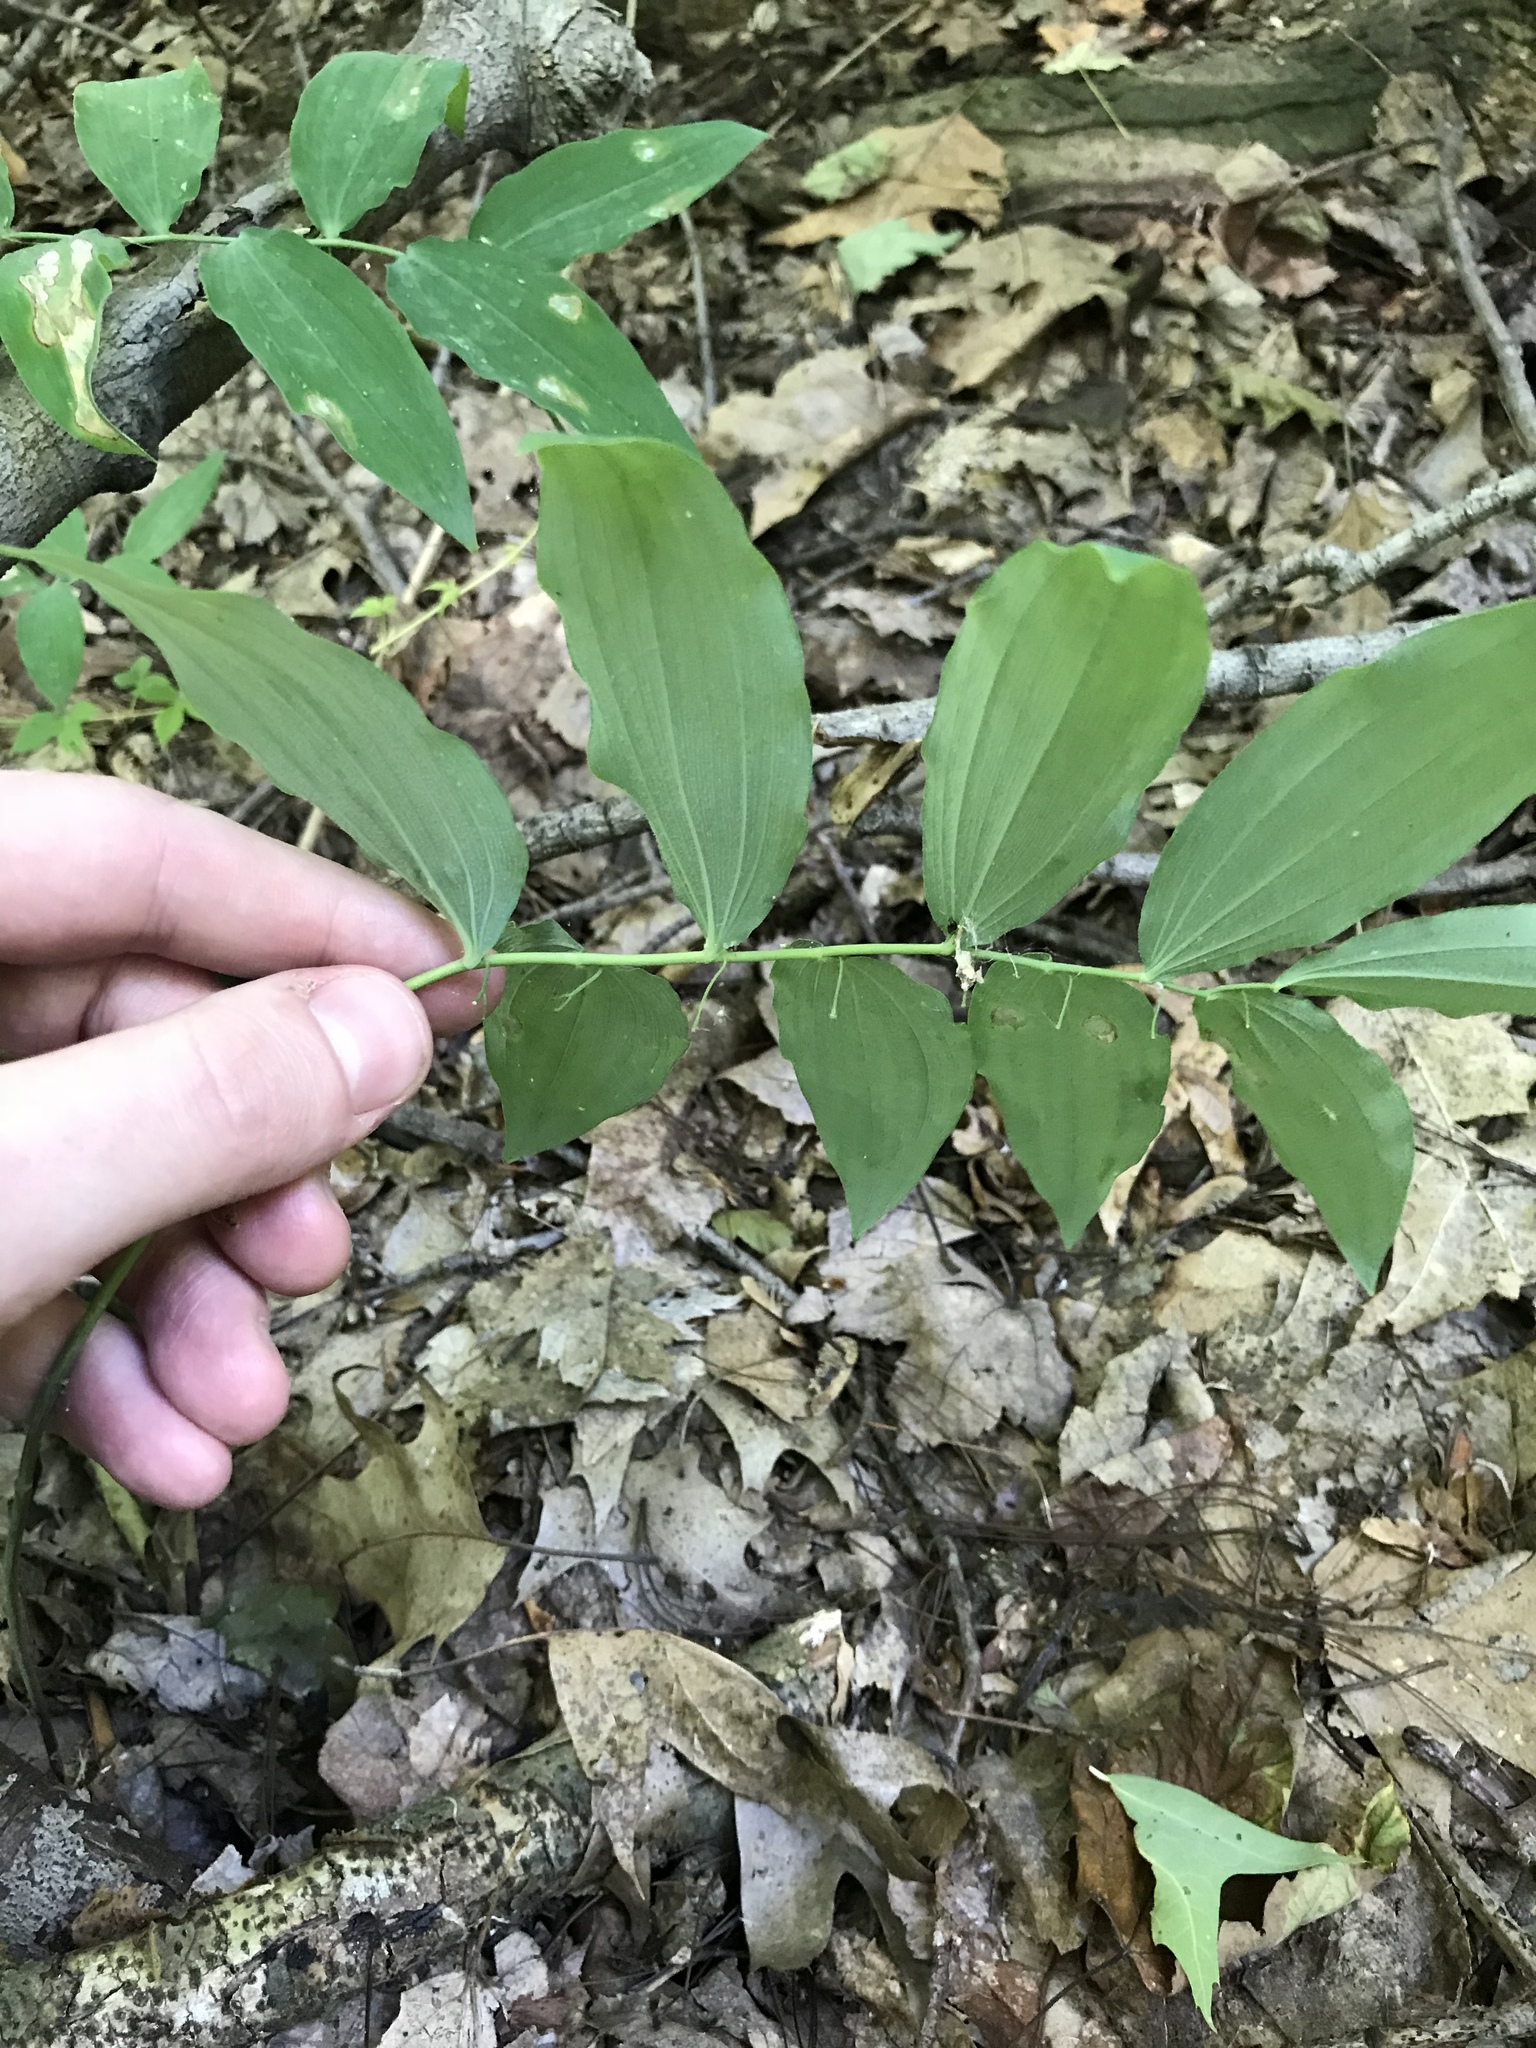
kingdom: Plantae
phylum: Tracheophyta
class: Liliopsida
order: Asparagales
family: Asparagaceae
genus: Polygonatum
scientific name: Polygonatum pubescens
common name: Downy solomon's seal
